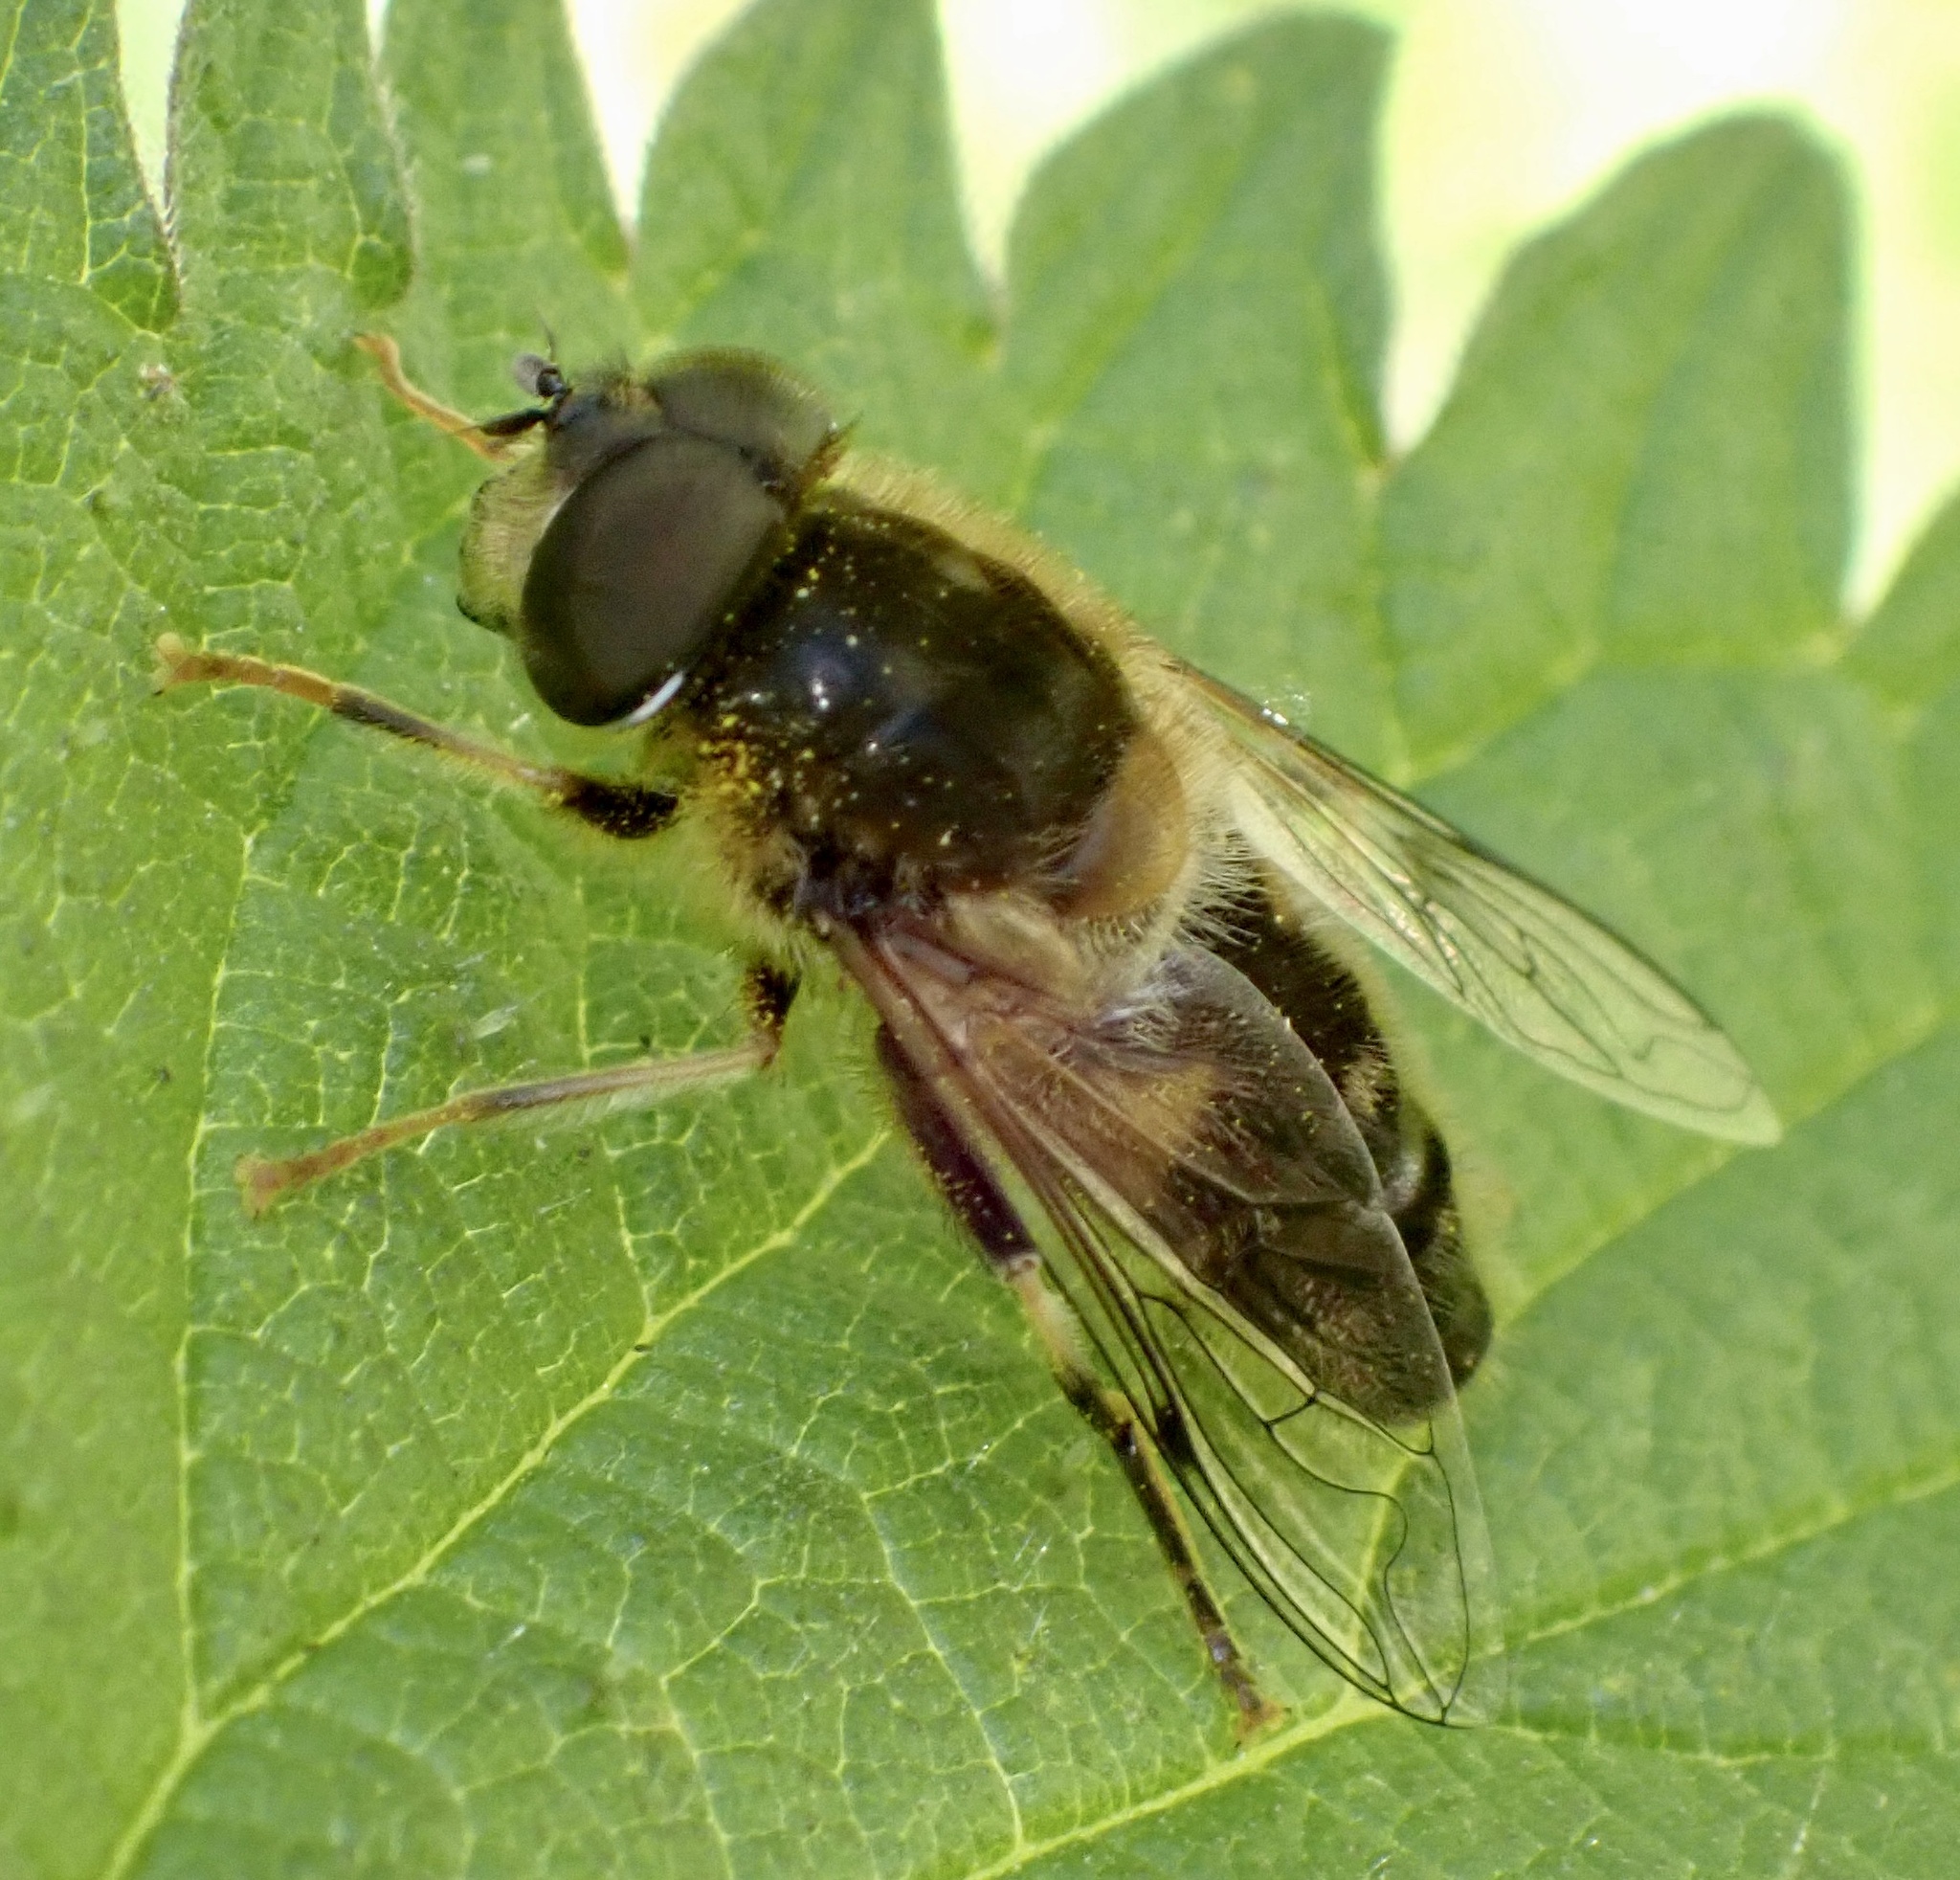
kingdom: Animalia
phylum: Arthropoda
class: Insecta
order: Diptera
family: Syrphidae
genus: Eristalis
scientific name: Eristalis pertinax
